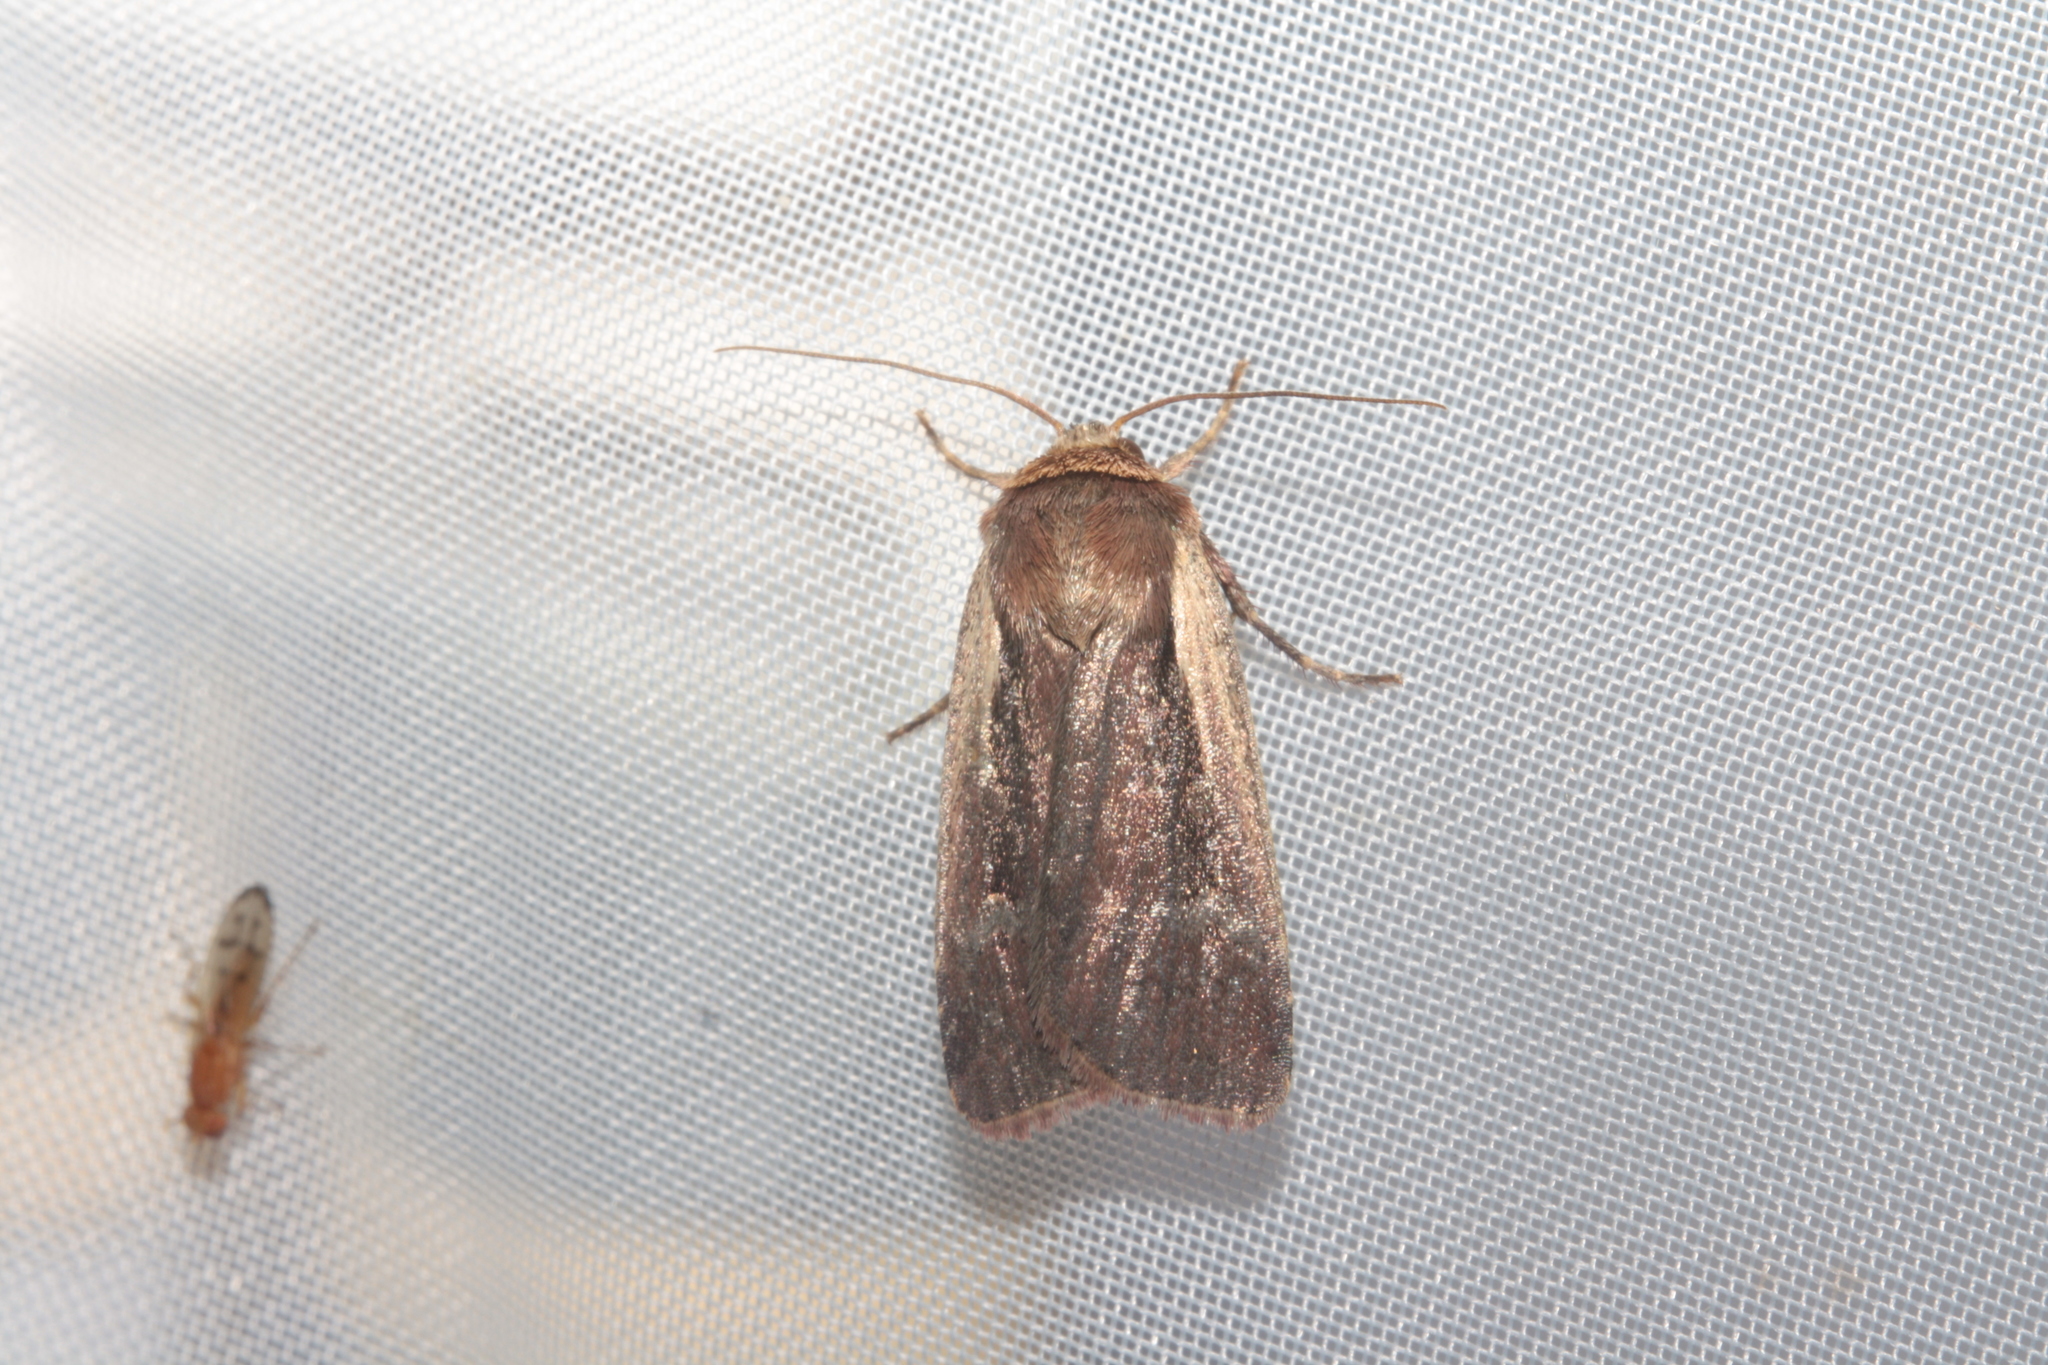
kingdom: Animalia
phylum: Arthropoda
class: Insecta
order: Lepidoptera
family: Noctuidae
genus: Ochropleura
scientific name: Ochropleura plecta
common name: Flame shoulder
